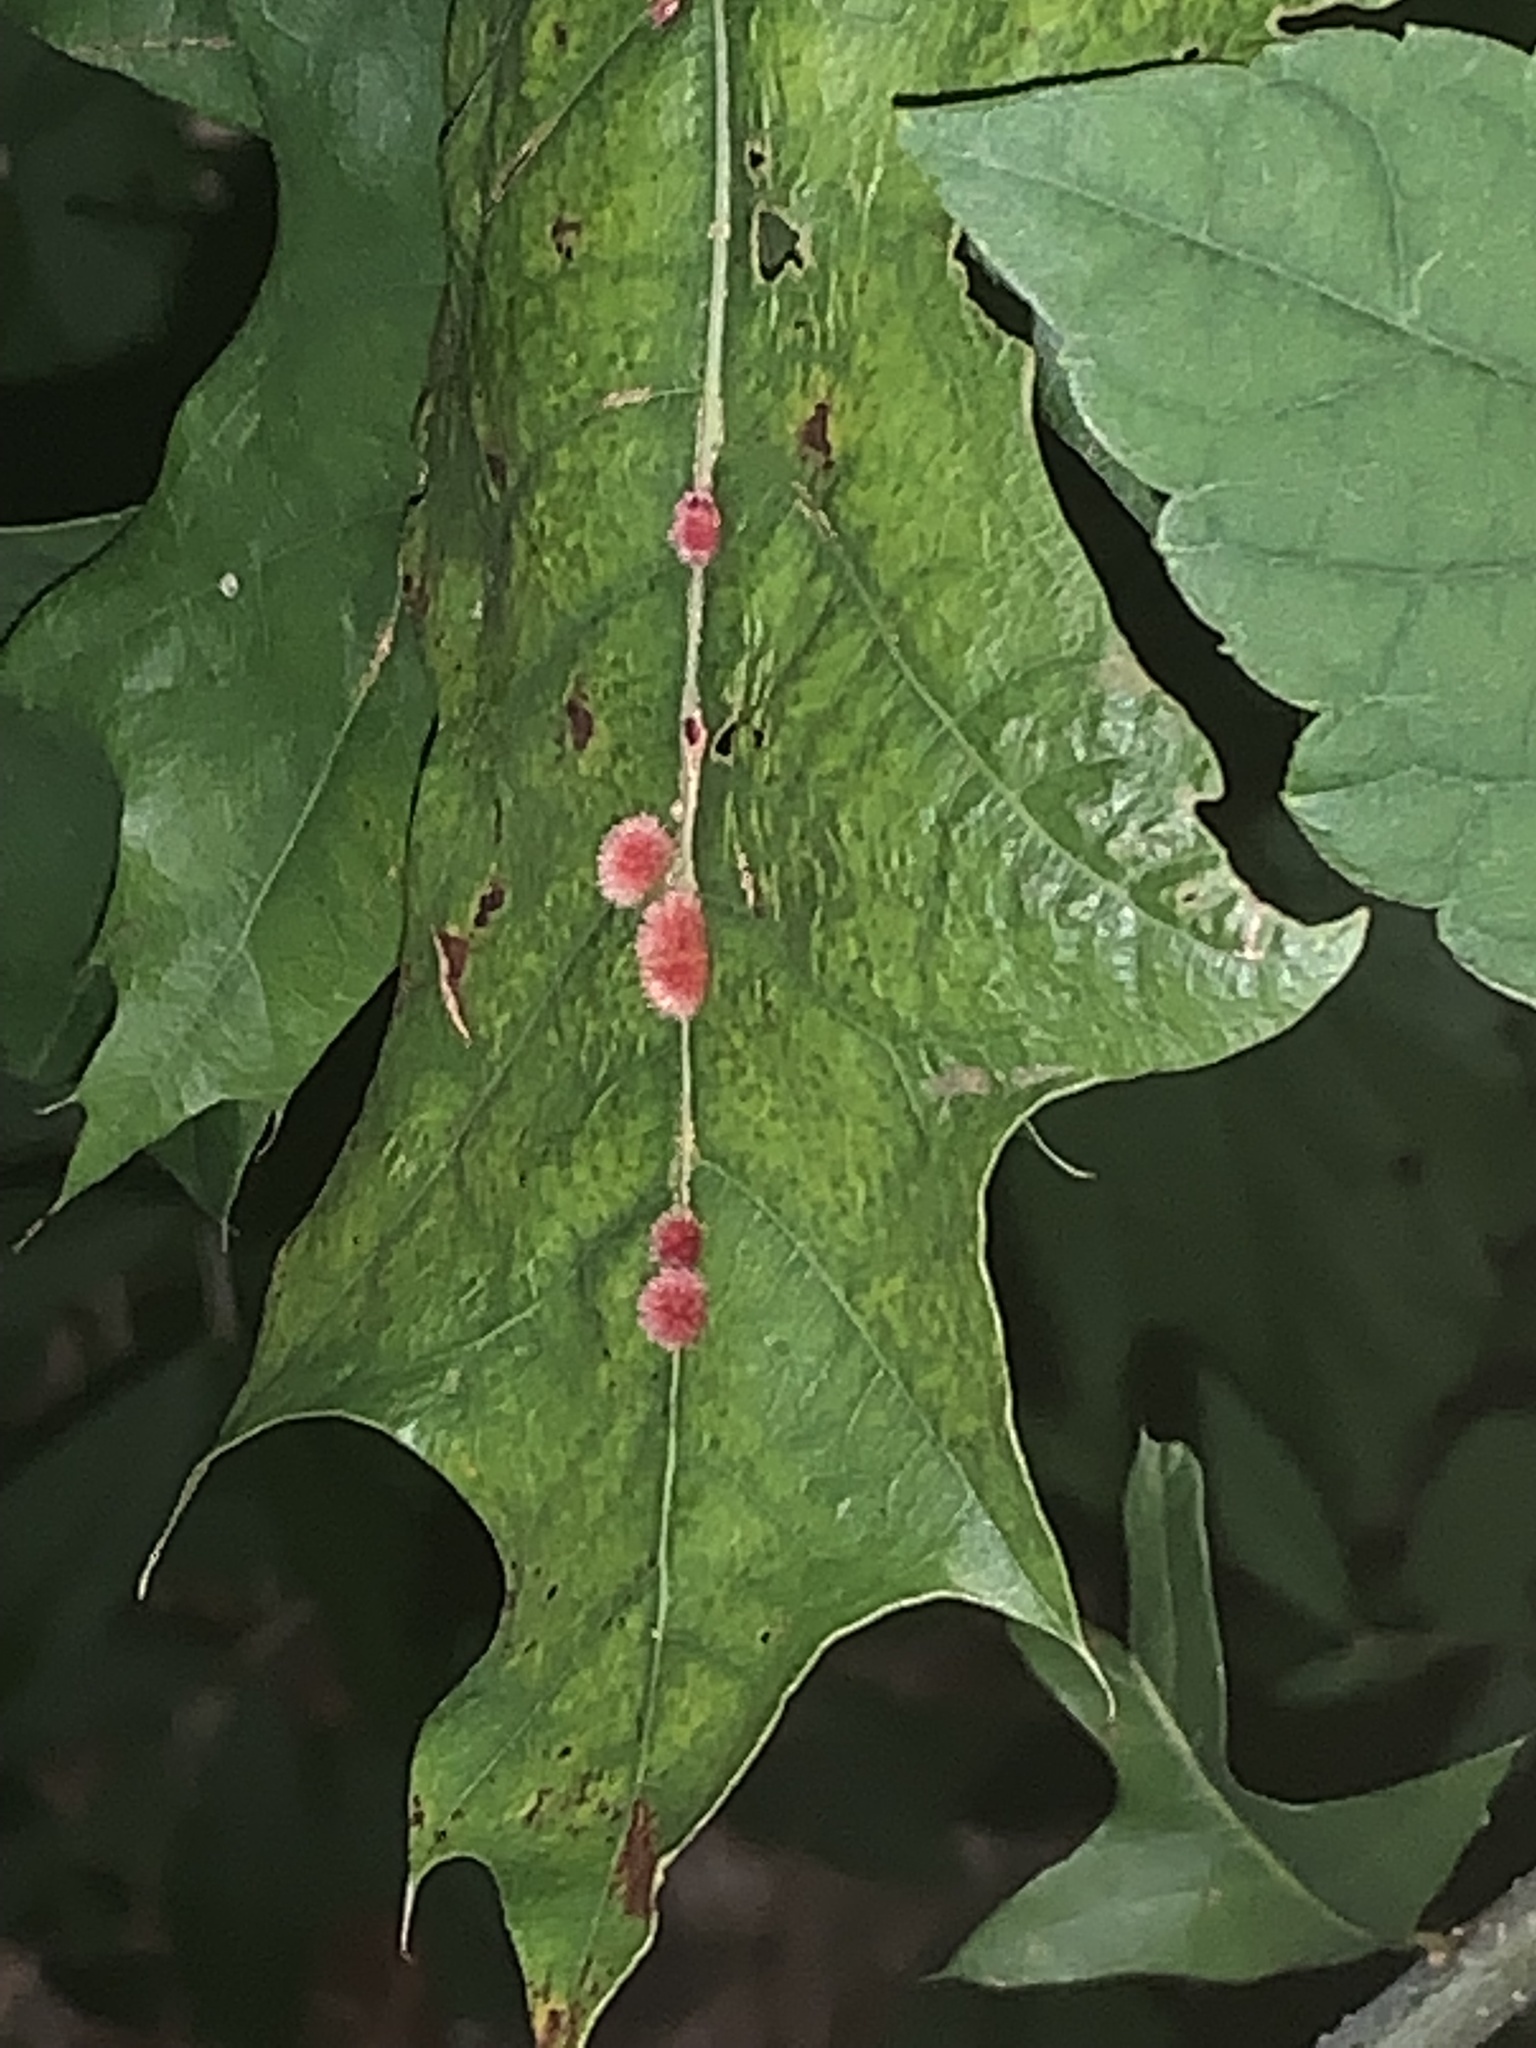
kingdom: Animalia
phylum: Arthropoda
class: Insecta
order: Hymenoptera
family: Cynipidae
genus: Callirhytis
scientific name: Callirhytis
